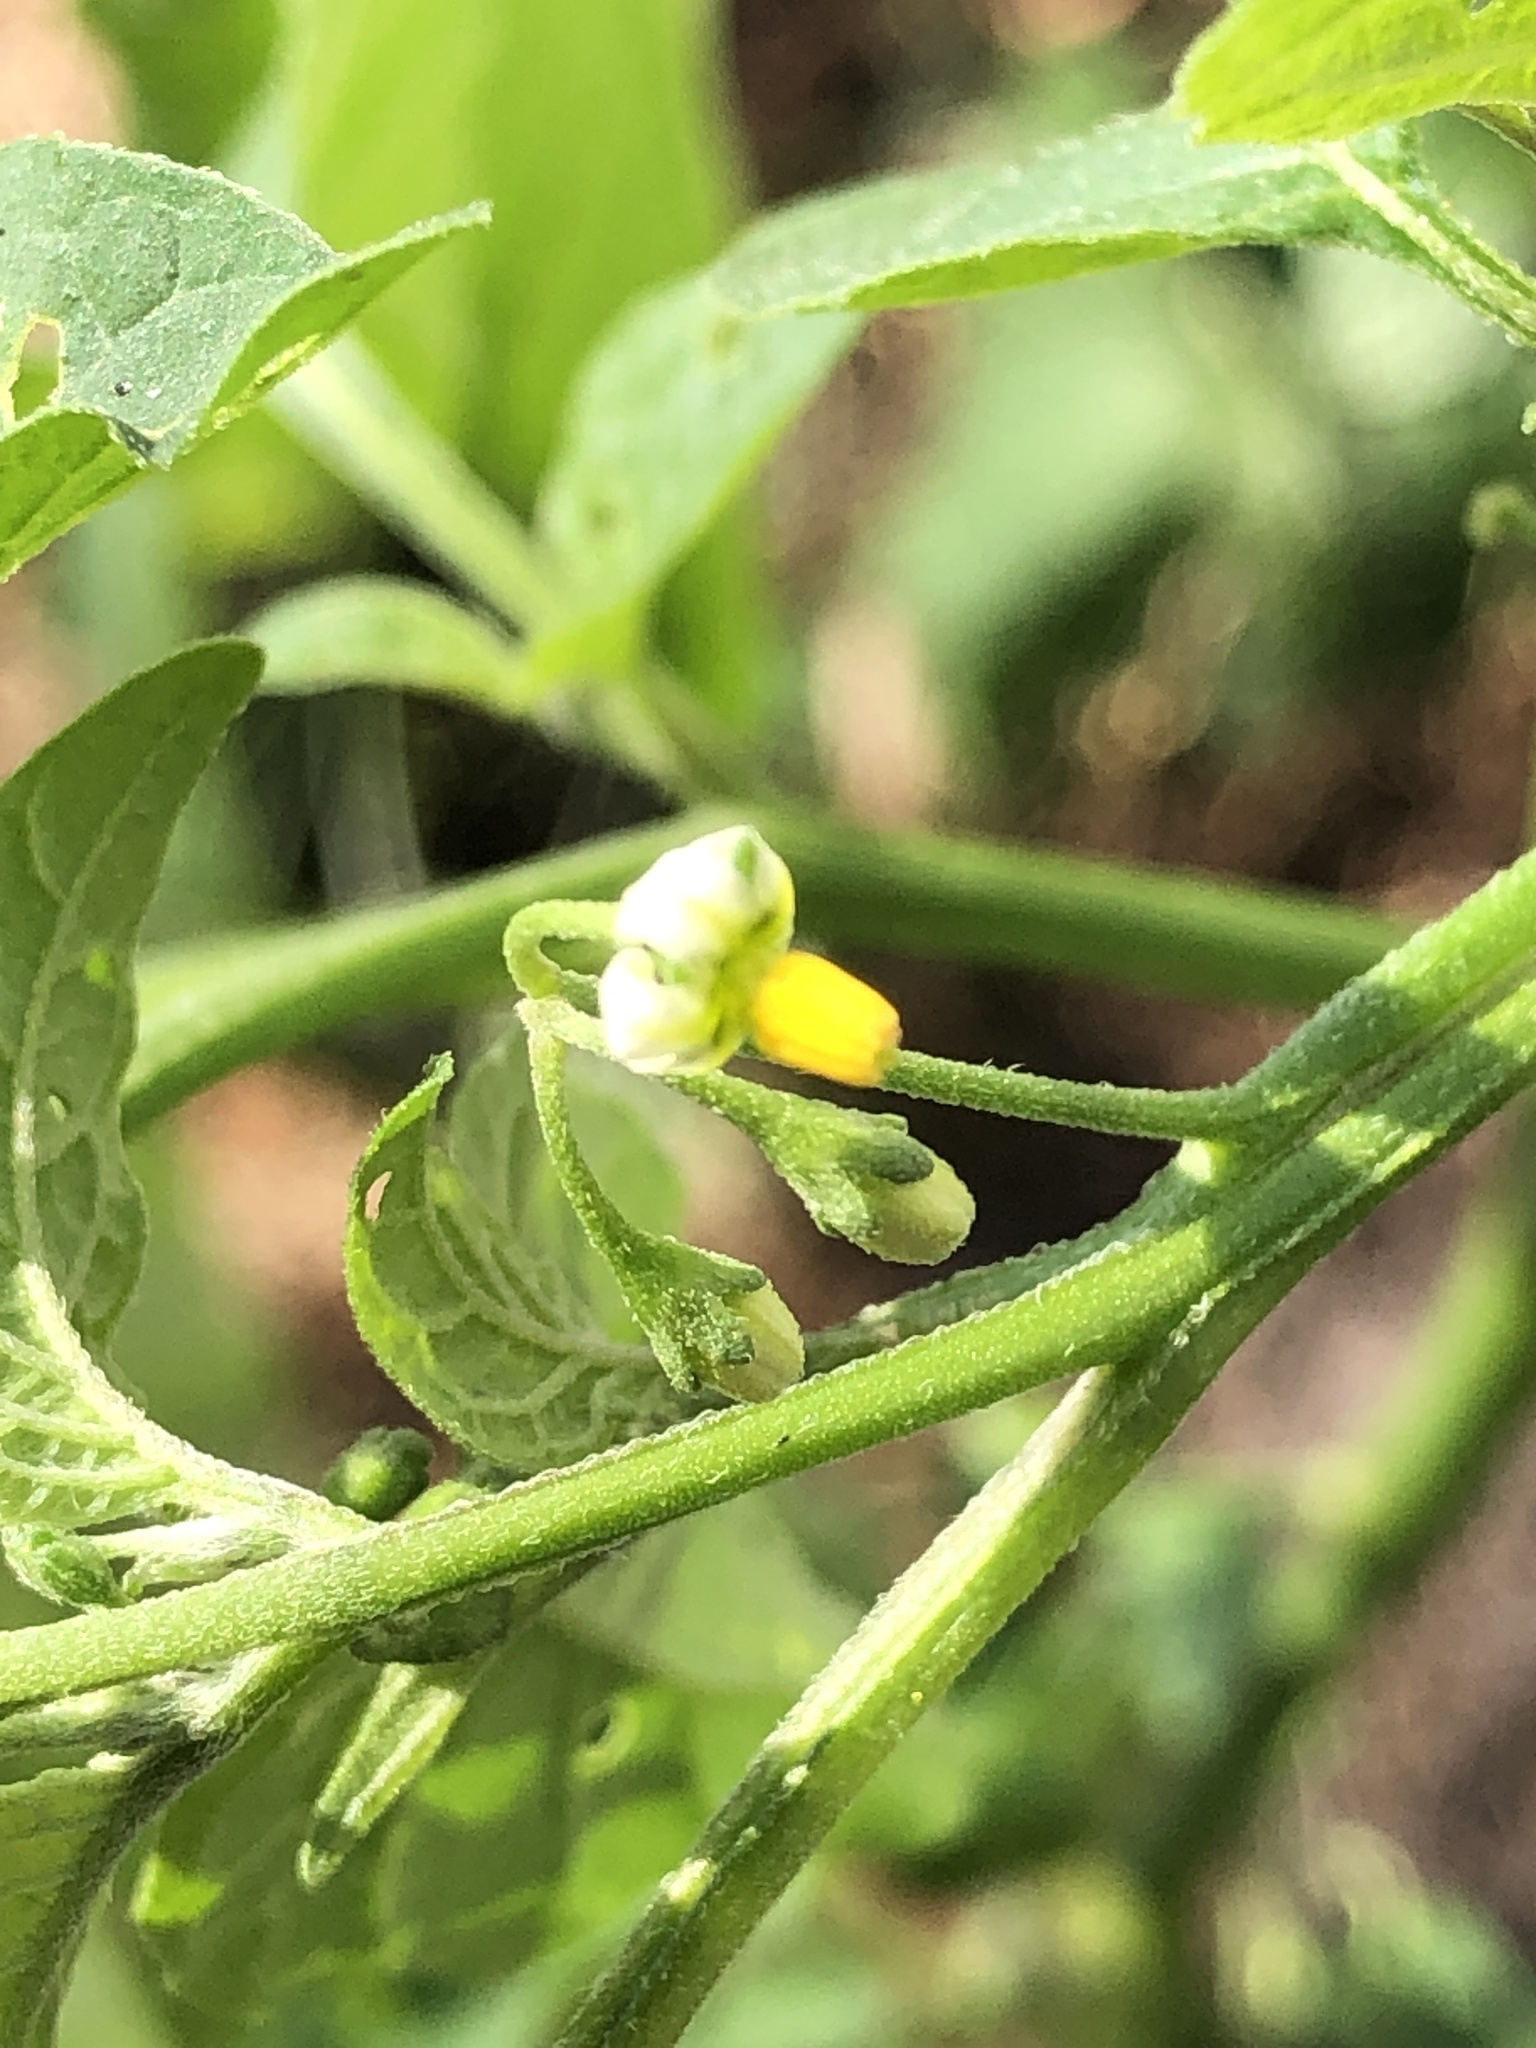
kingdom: Plantae
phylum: Tracheophyta
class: Magnoliopsida
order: Solanales
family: Solanaceae
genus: Solanum
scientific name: Solanum emulans
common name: Eastern black nightshade
